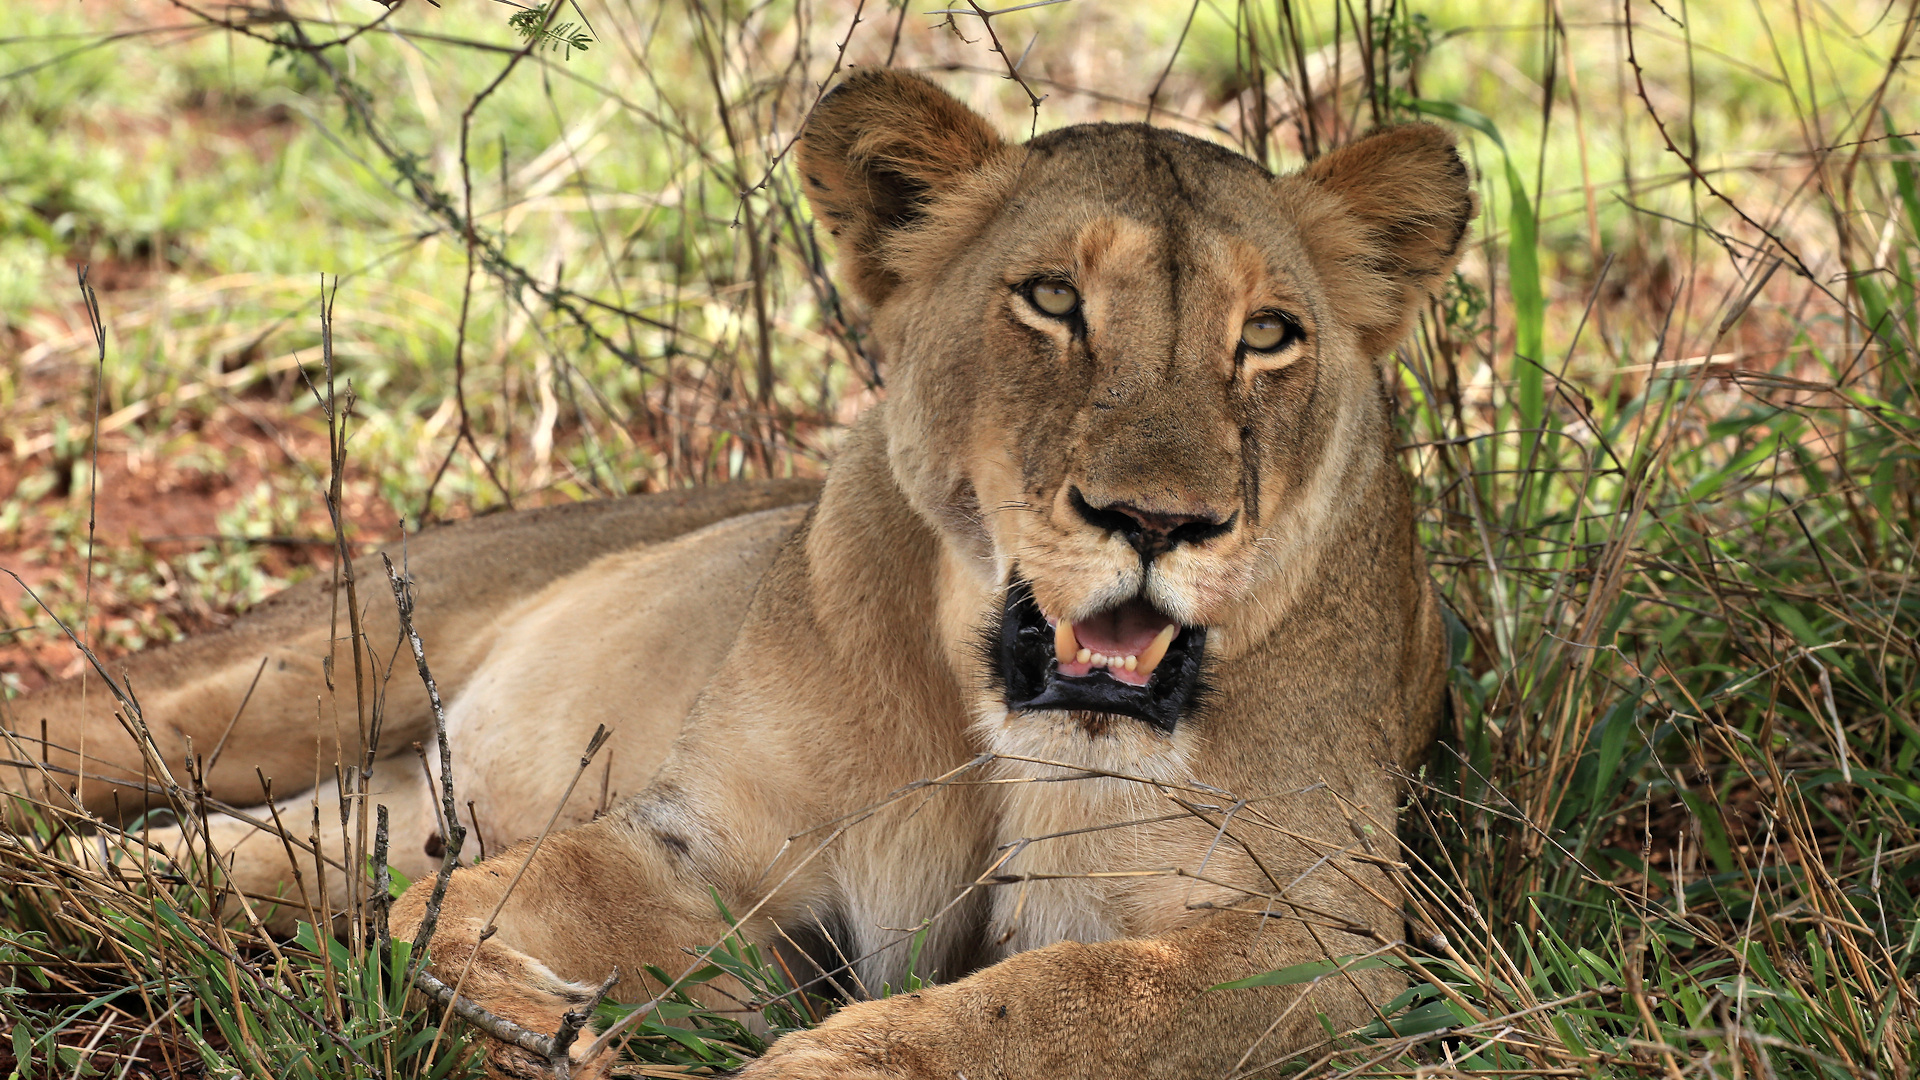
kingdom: Animalia
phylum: Chordata
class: Mammalia
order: Carnivora
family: Felidae
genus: Panthera
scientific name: Panthera leo
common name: Lion
